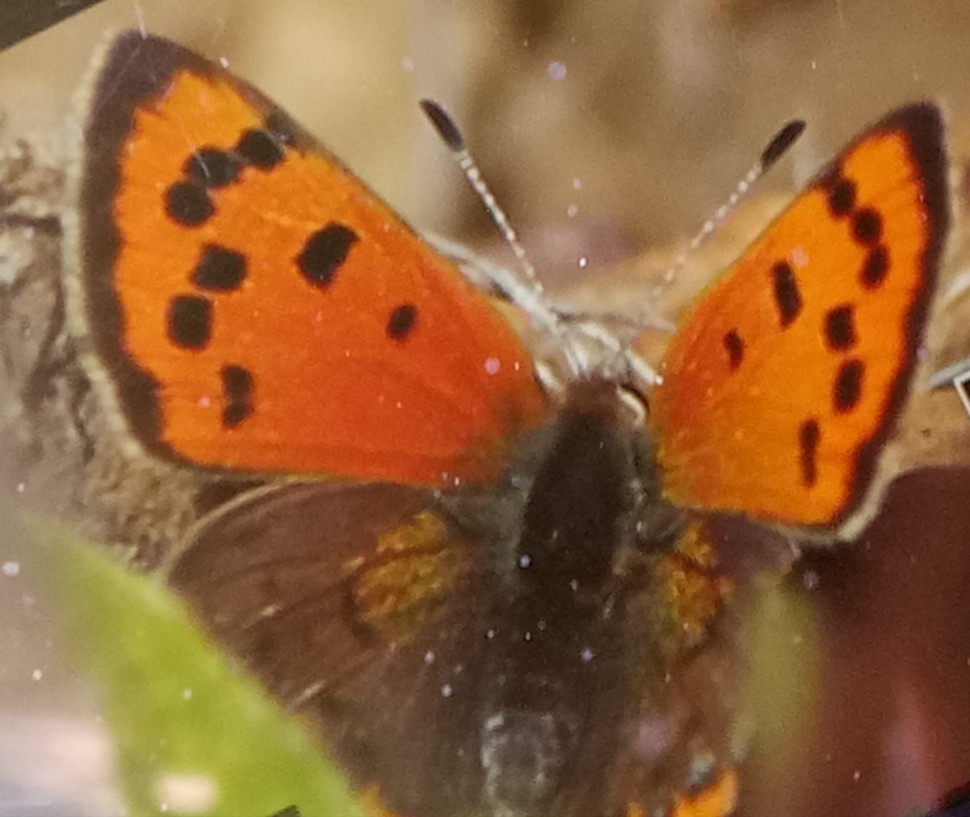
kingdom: Animalia
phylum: Arthropoda
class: Insecta
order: Lepidoptera
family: Lycaenidae
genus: Lycaena
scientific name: Lycaena phlaeas
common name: Small copper
